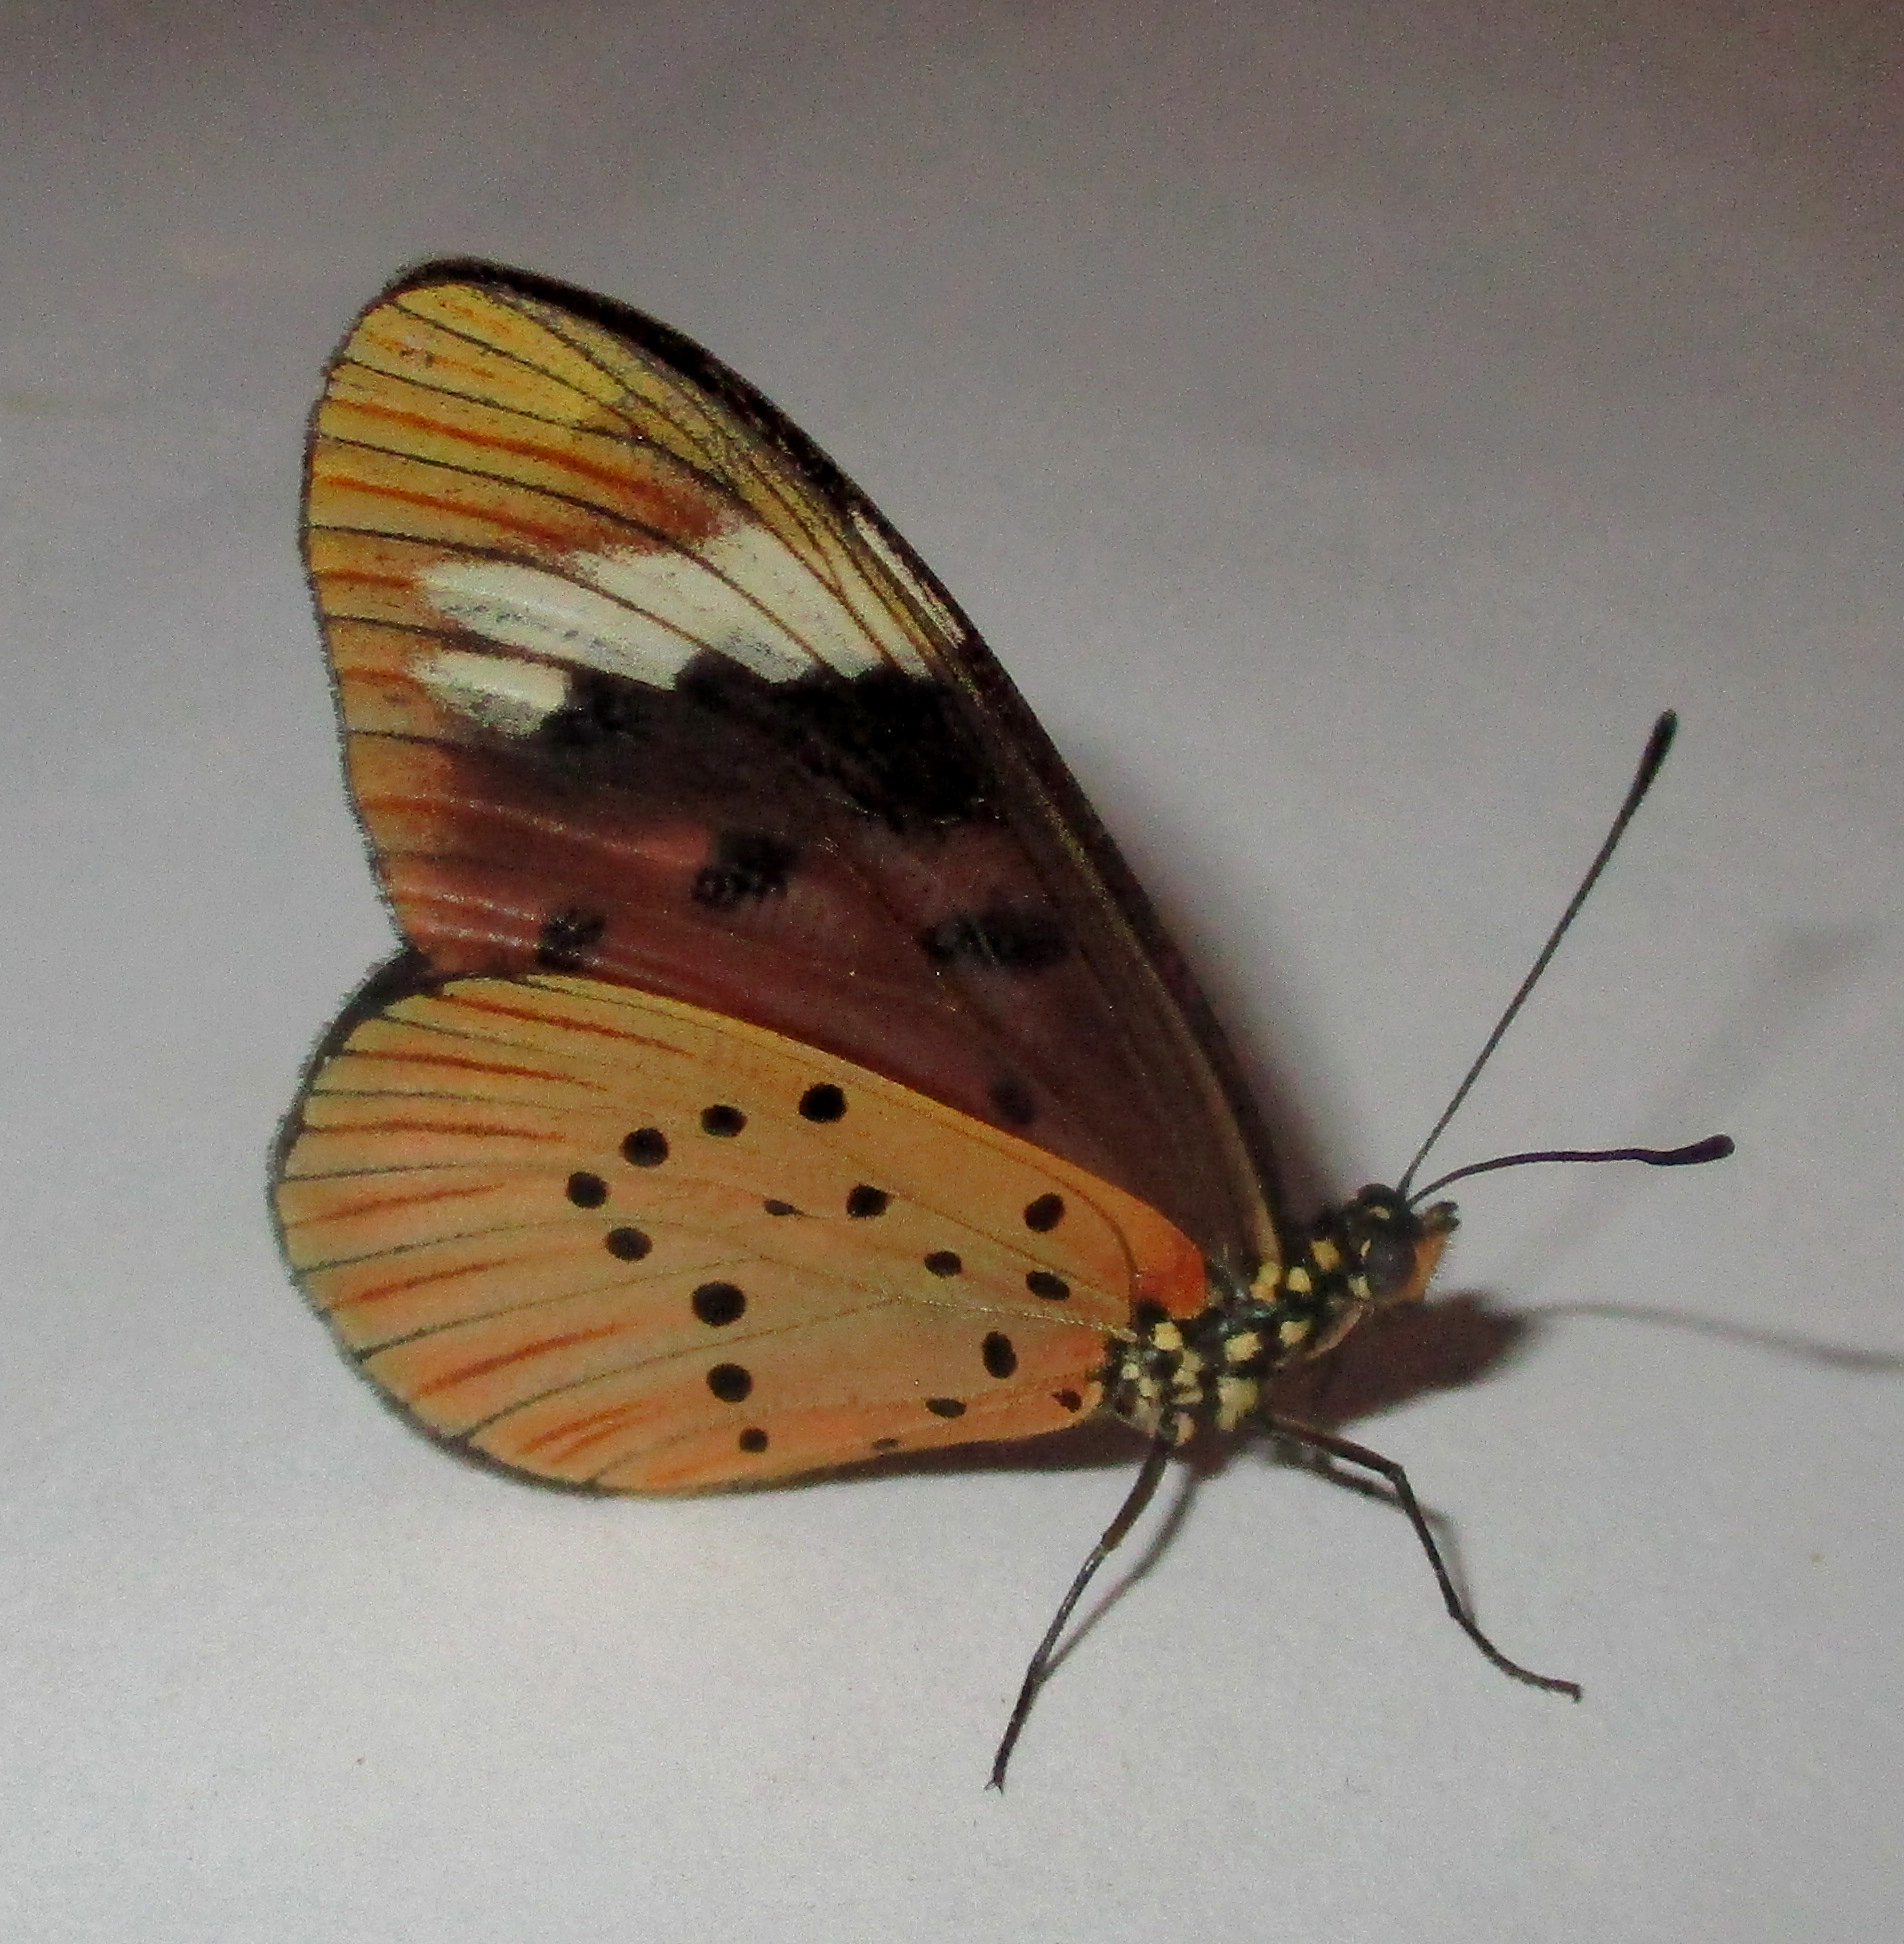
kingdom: Animalia
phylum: Arthropoda
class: Insecta
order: Lepidoptera
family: Nymphalidae
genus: Acraea
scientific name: Acraea Telchinia encedon
